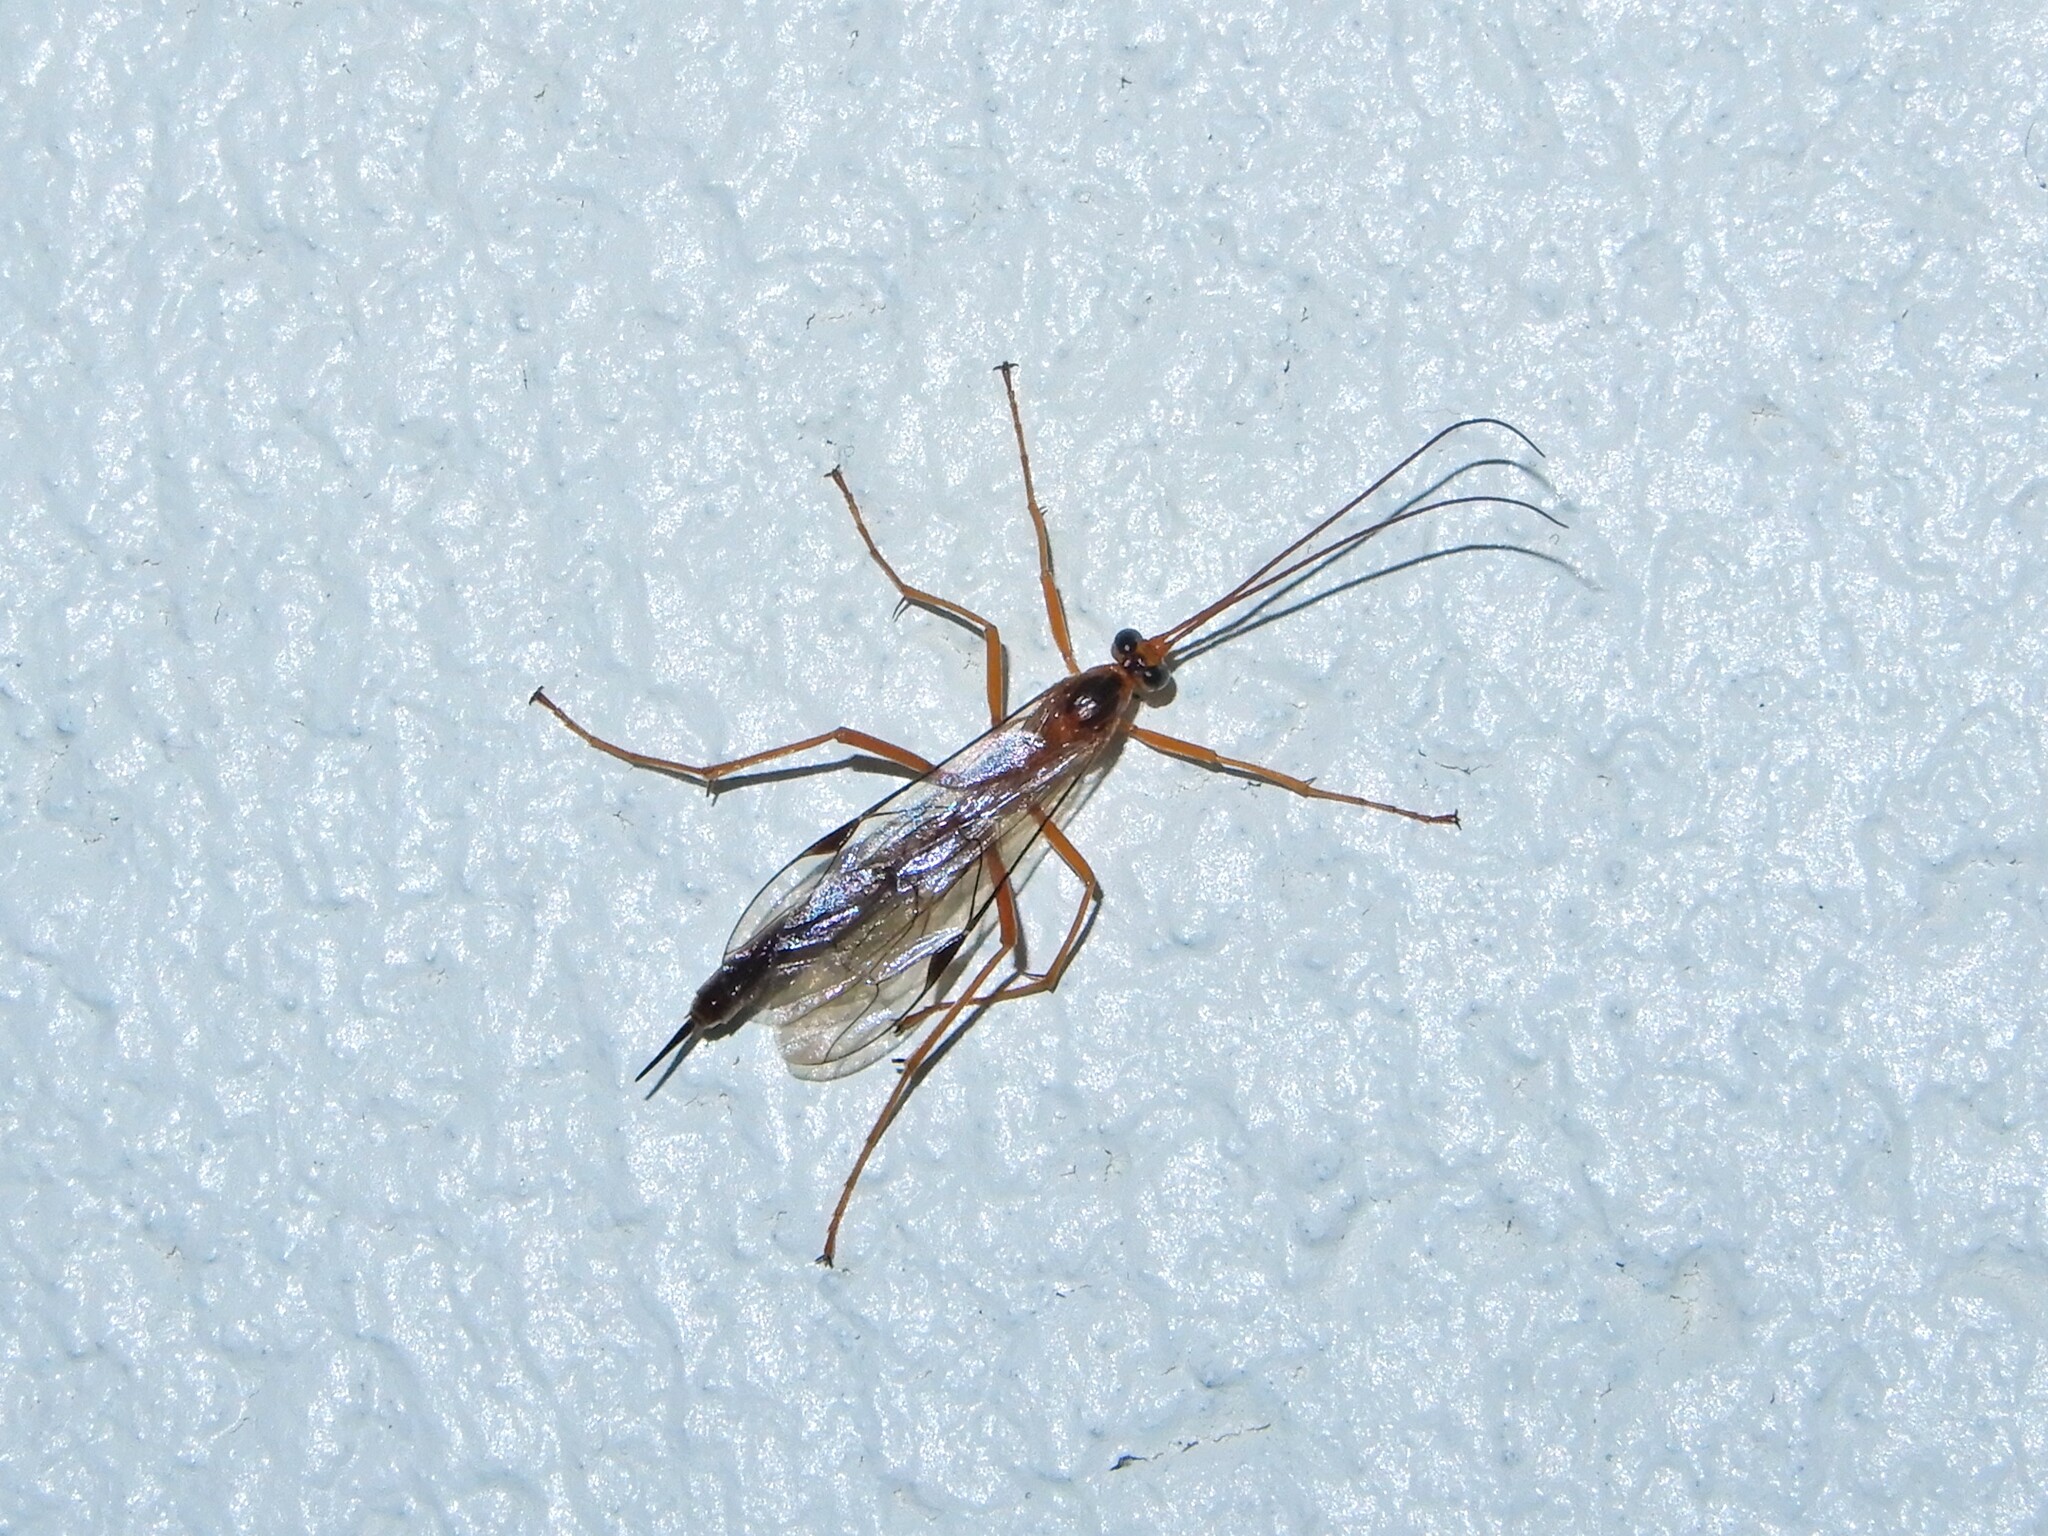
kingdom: Animalia
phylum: Arthropoda
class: Insecta
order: Hymenoptera
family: Ichneumonidae
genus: Netelia
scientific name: Netelia ephippiata
